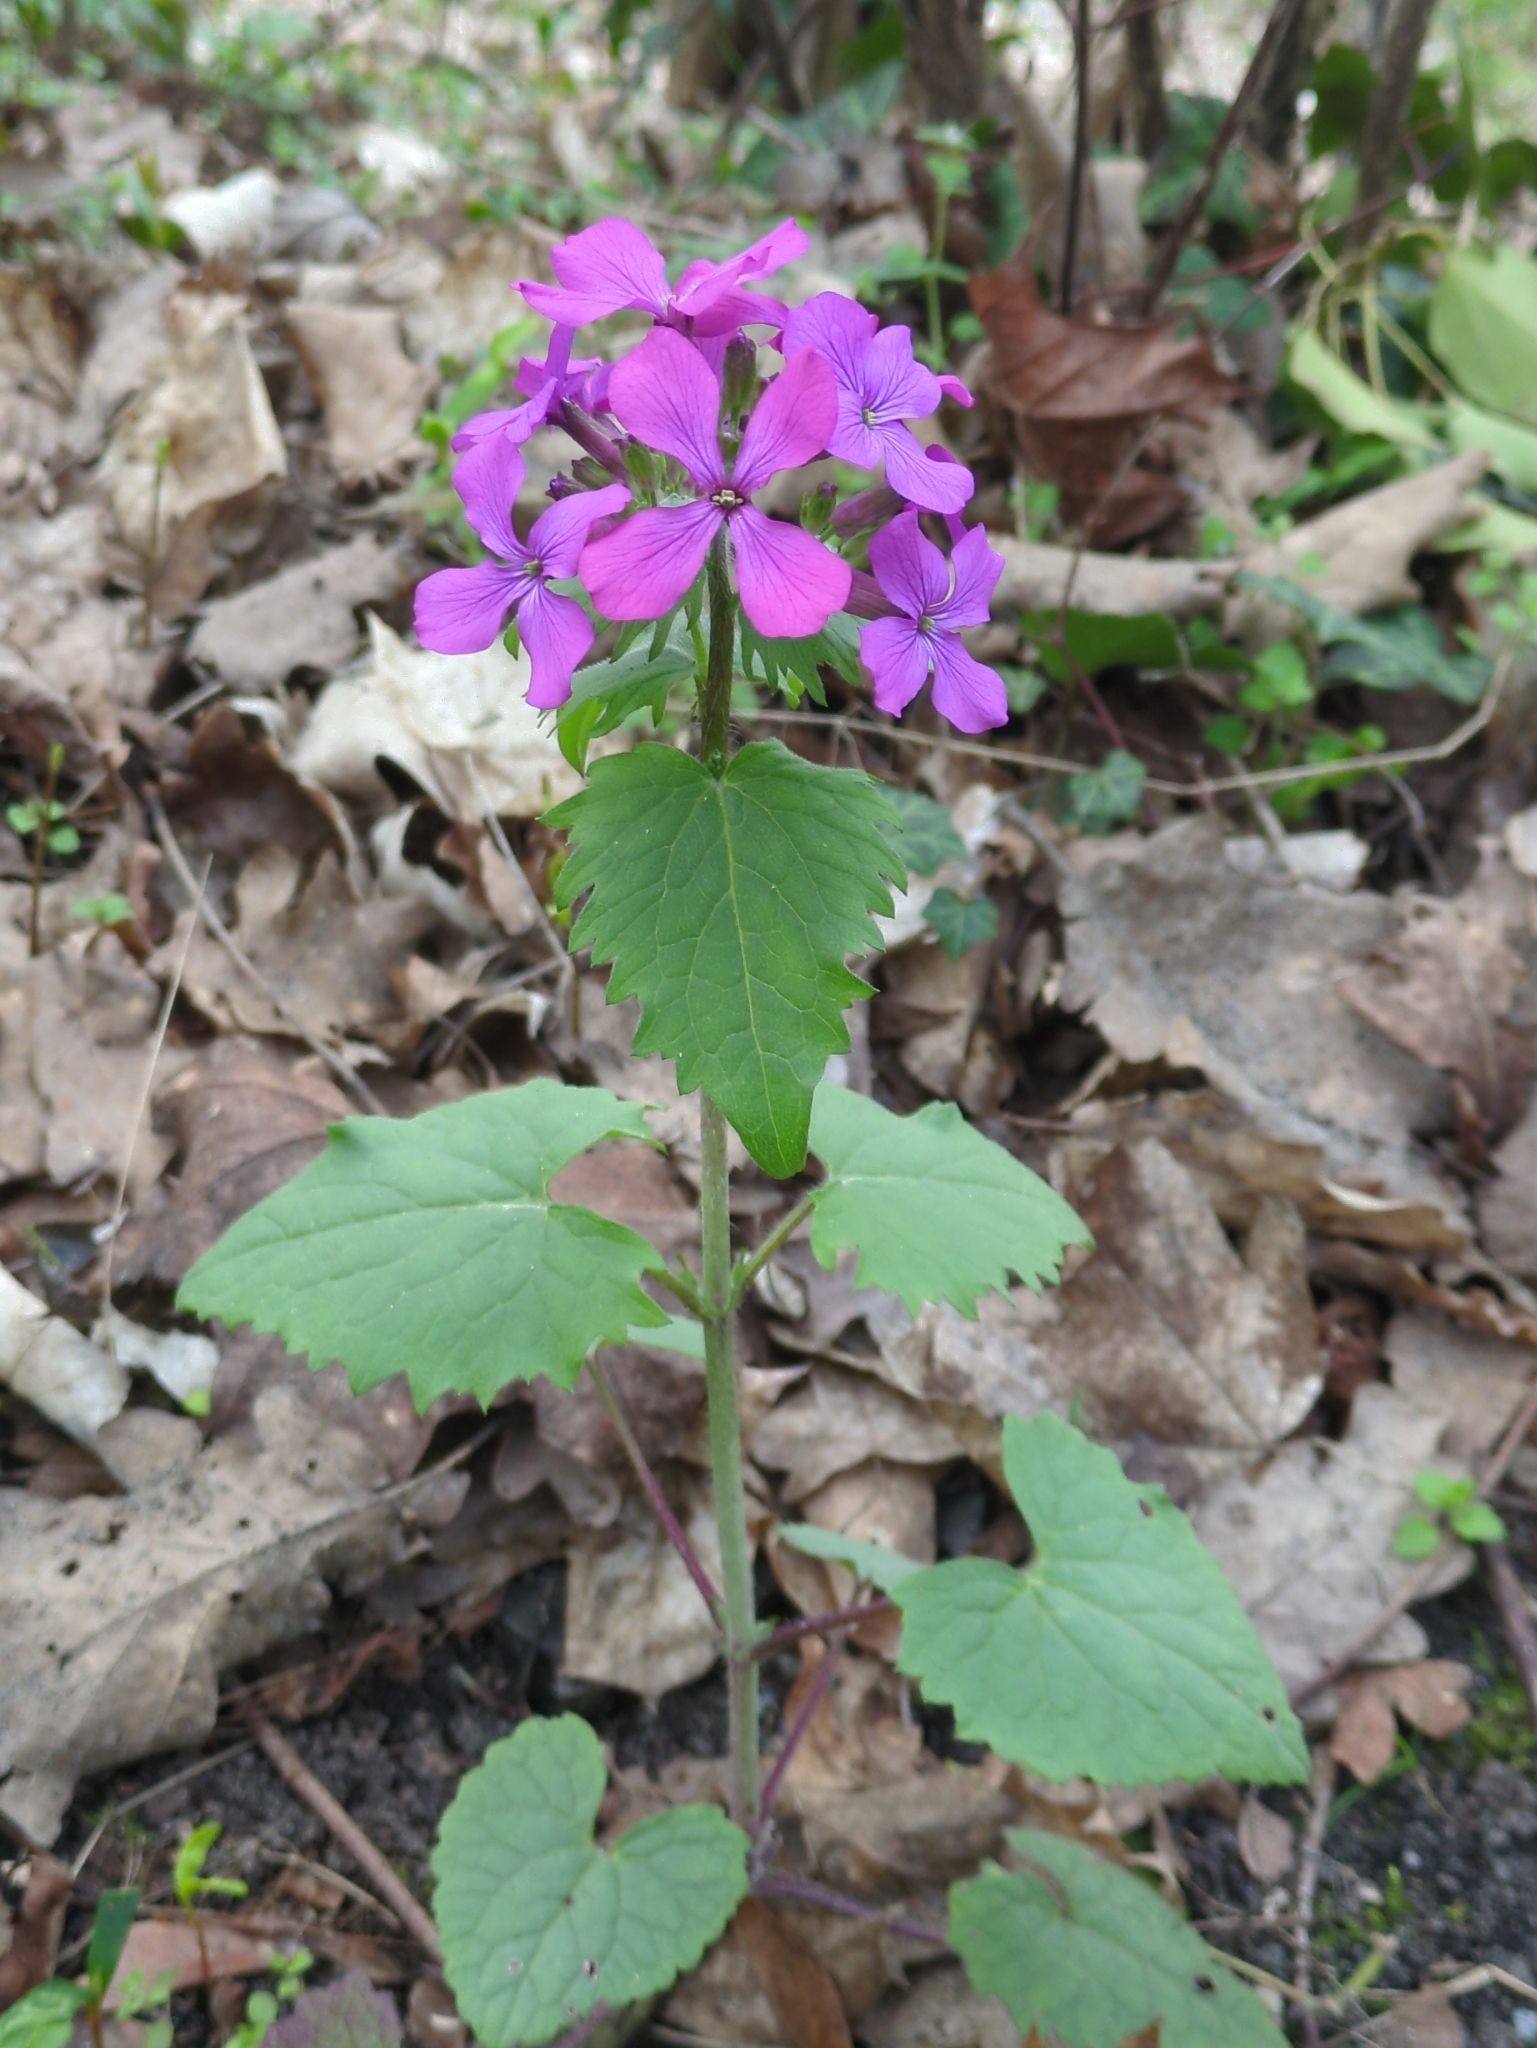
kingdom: Plantae
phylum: Tracheophyta
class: Magnoliopsida
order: Brassicales
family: Brassicaceae
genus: Lunaria
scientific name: Lunaria annua
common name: Honesty
